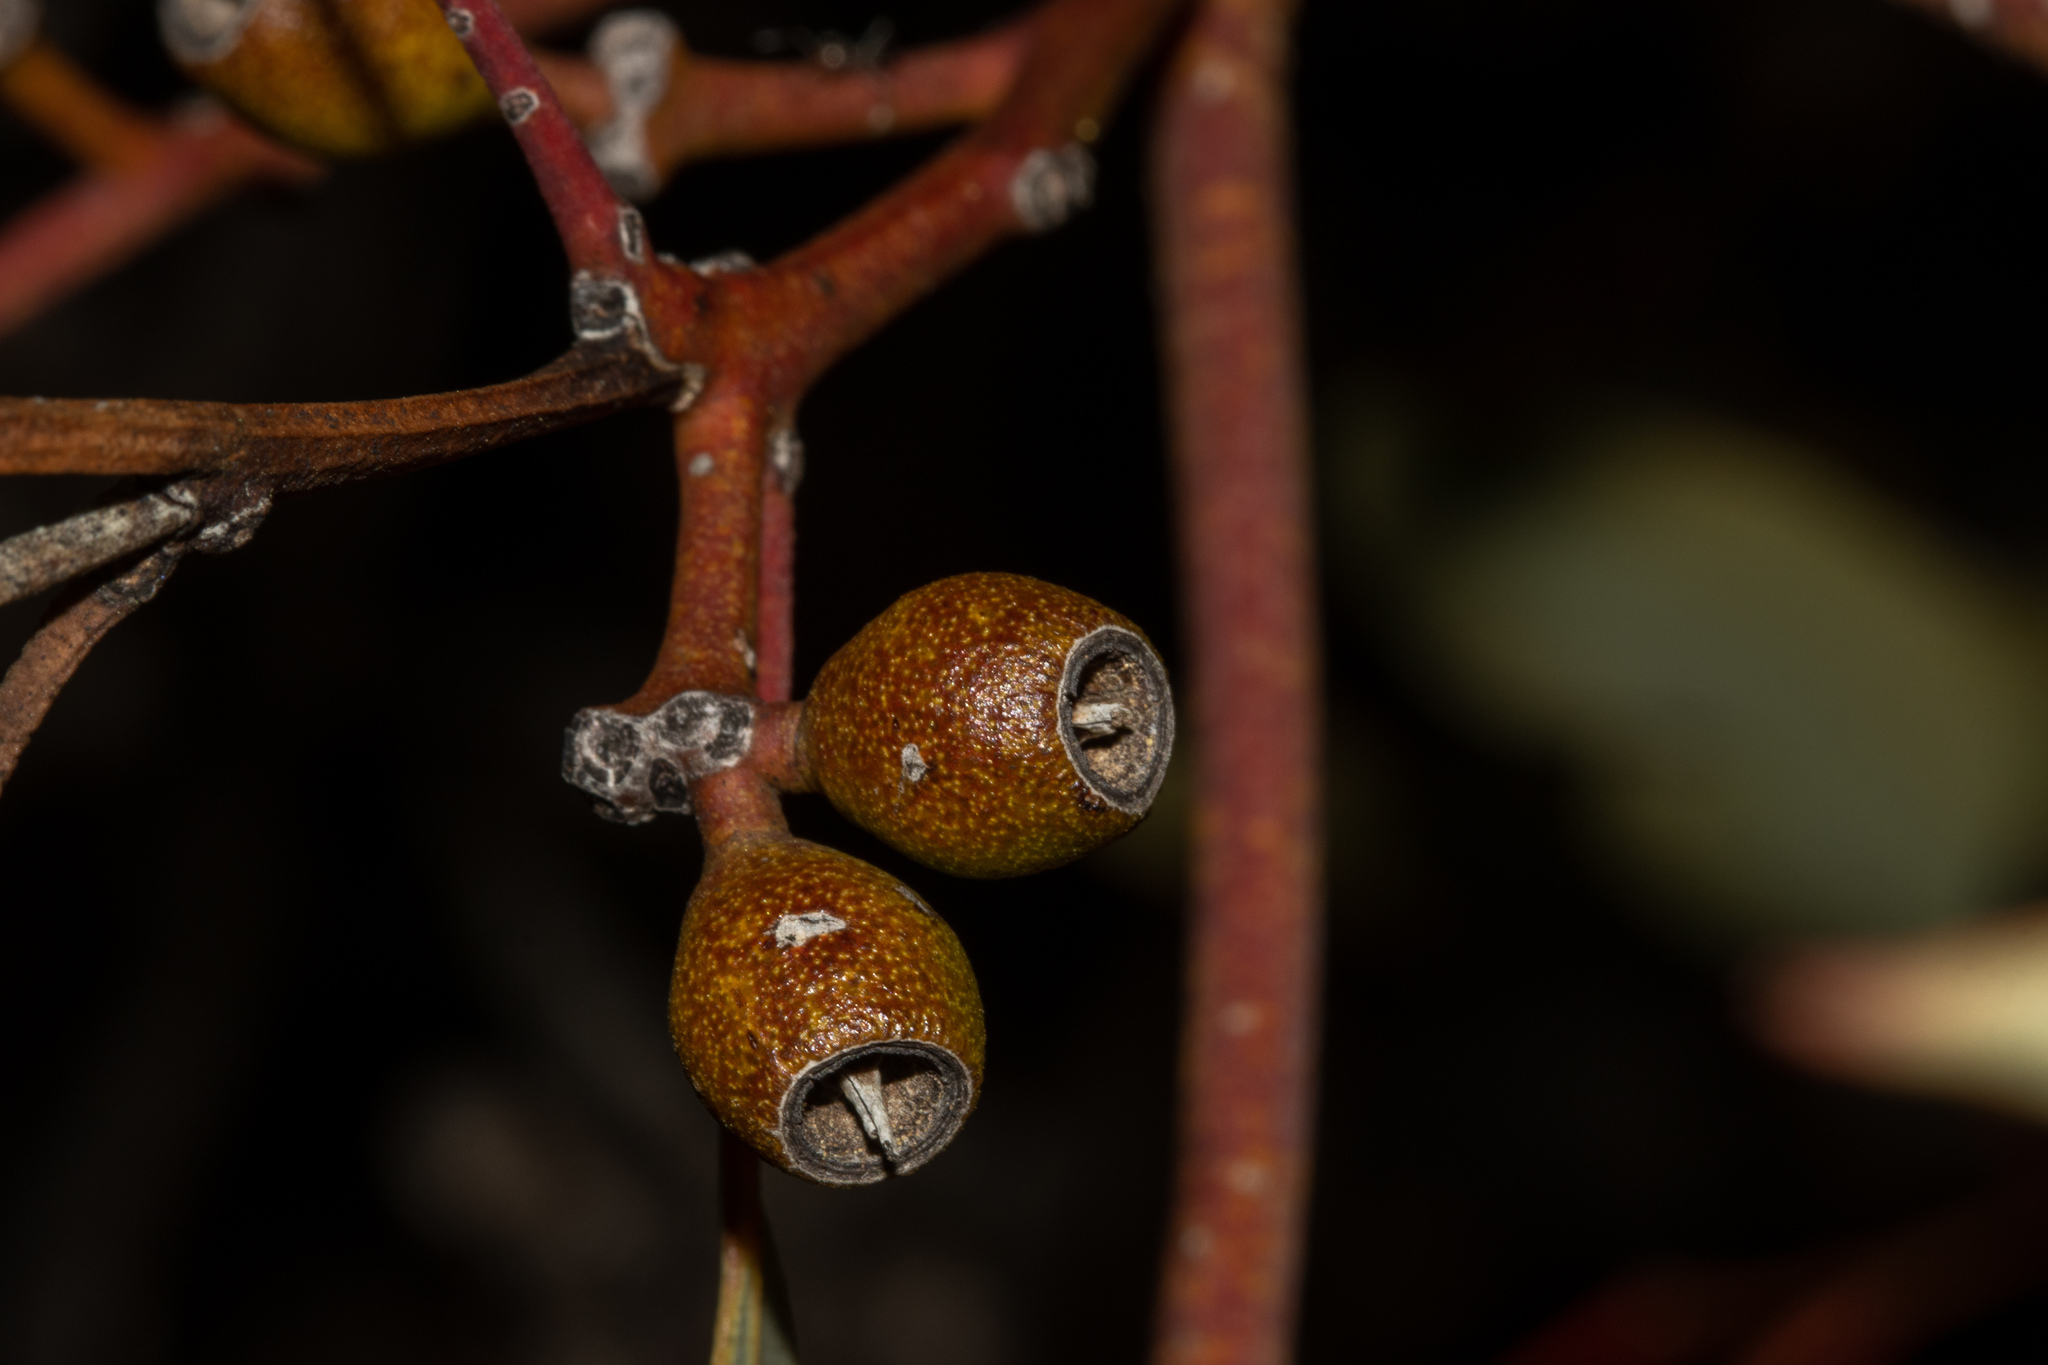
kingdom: Plantae
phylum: Tracheophyta
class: Magnoliopsida
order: Myrtales
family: Myrtaceae
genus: Eucalyptus
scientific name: Eucalyptus socialis
